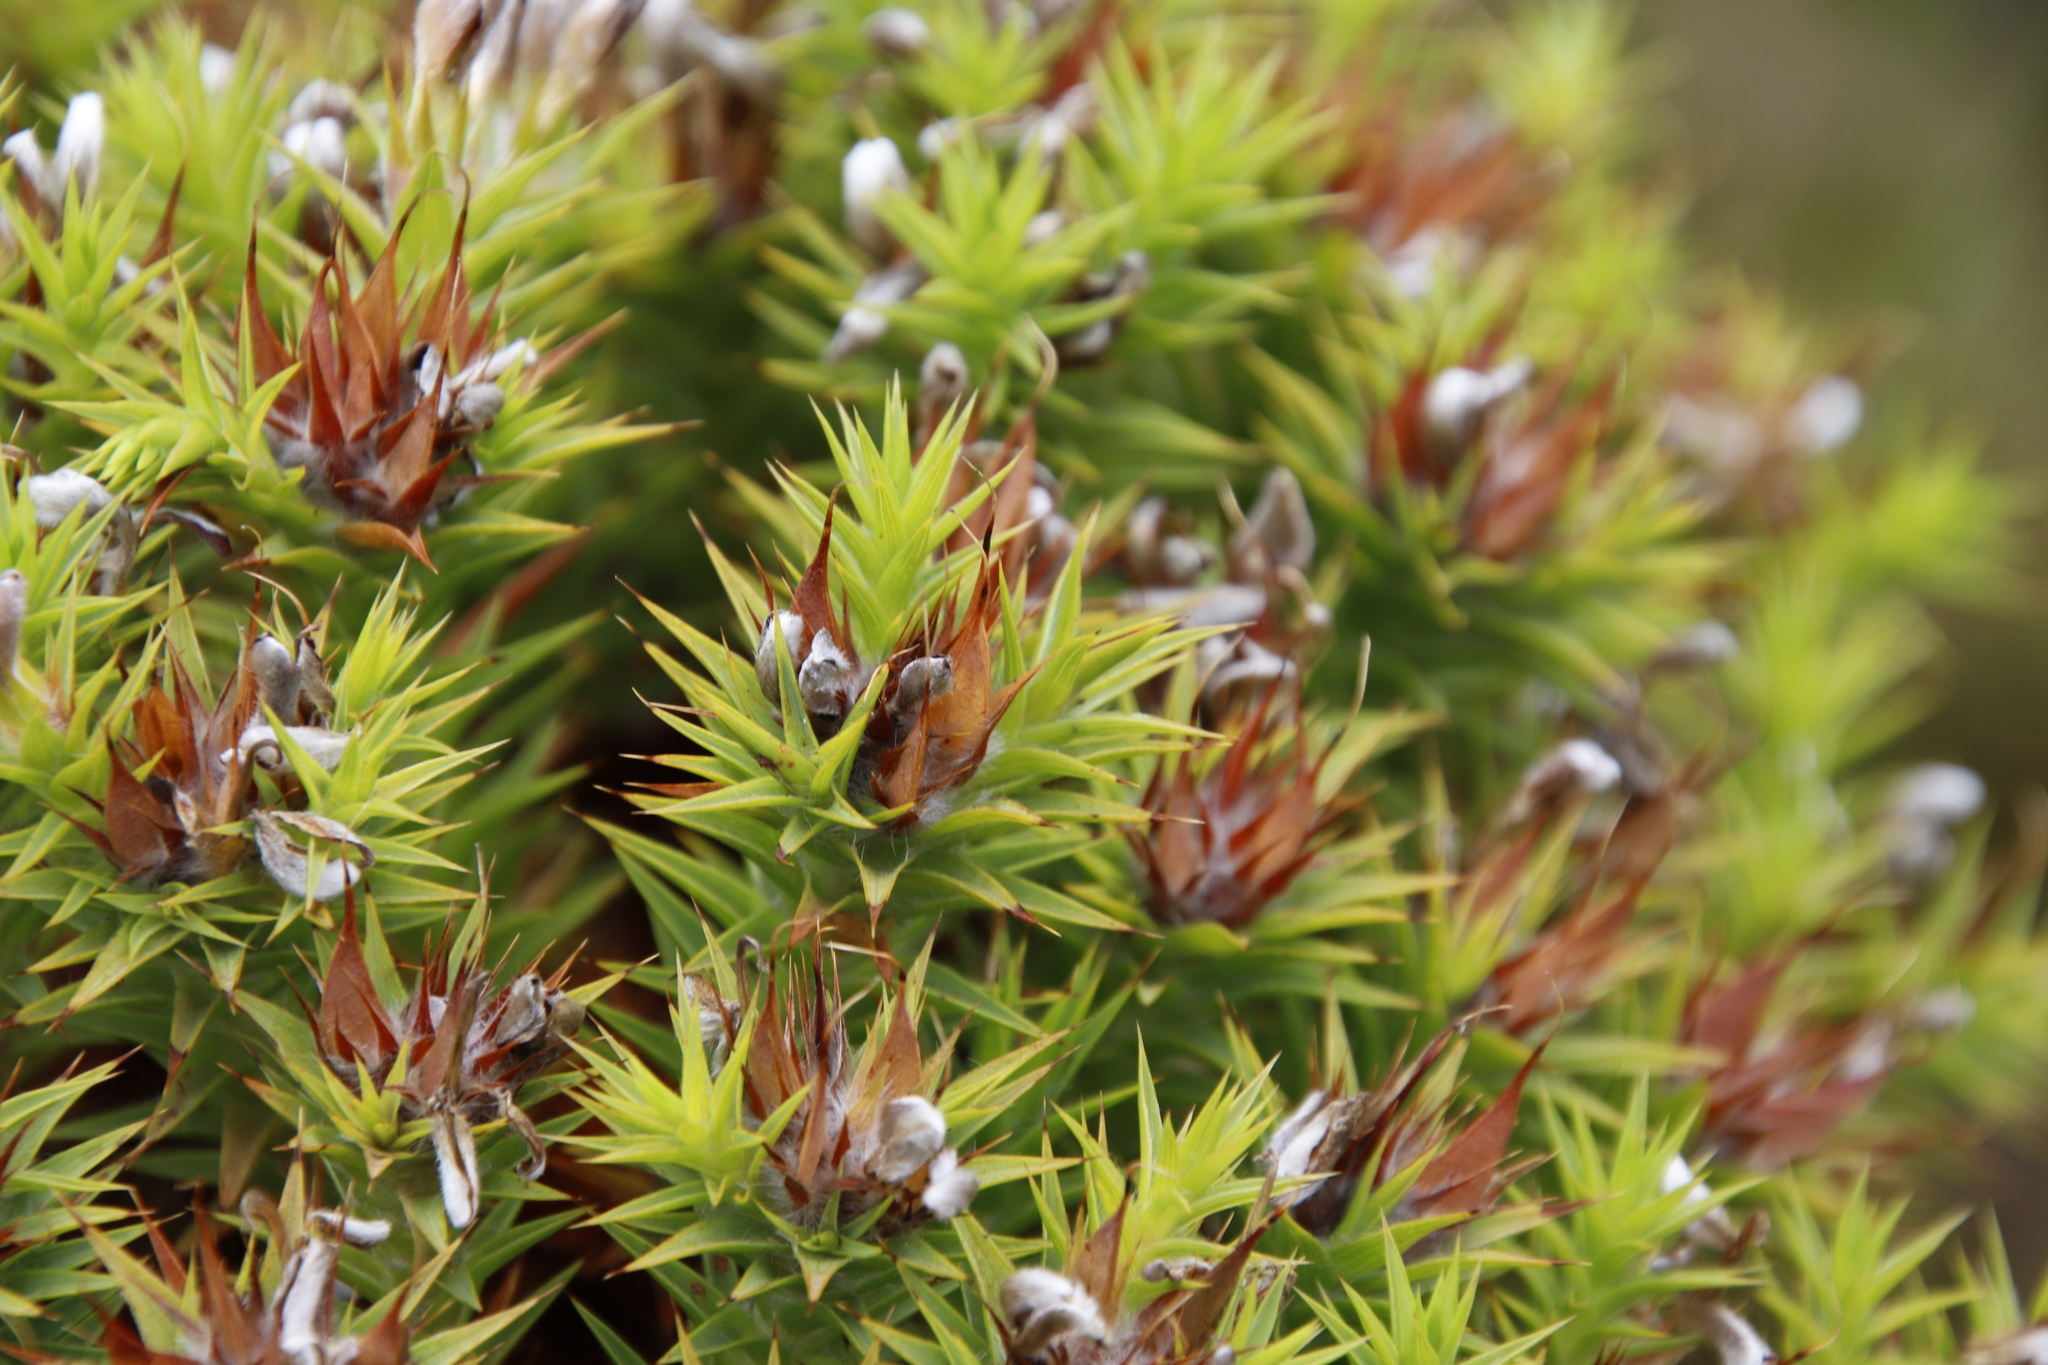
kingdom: Plantae
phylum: Tracheophyta
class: Magnoliopsida
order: Fabales
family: Fabaceae
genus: Aspalathus
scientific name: Aspalathus barbata
